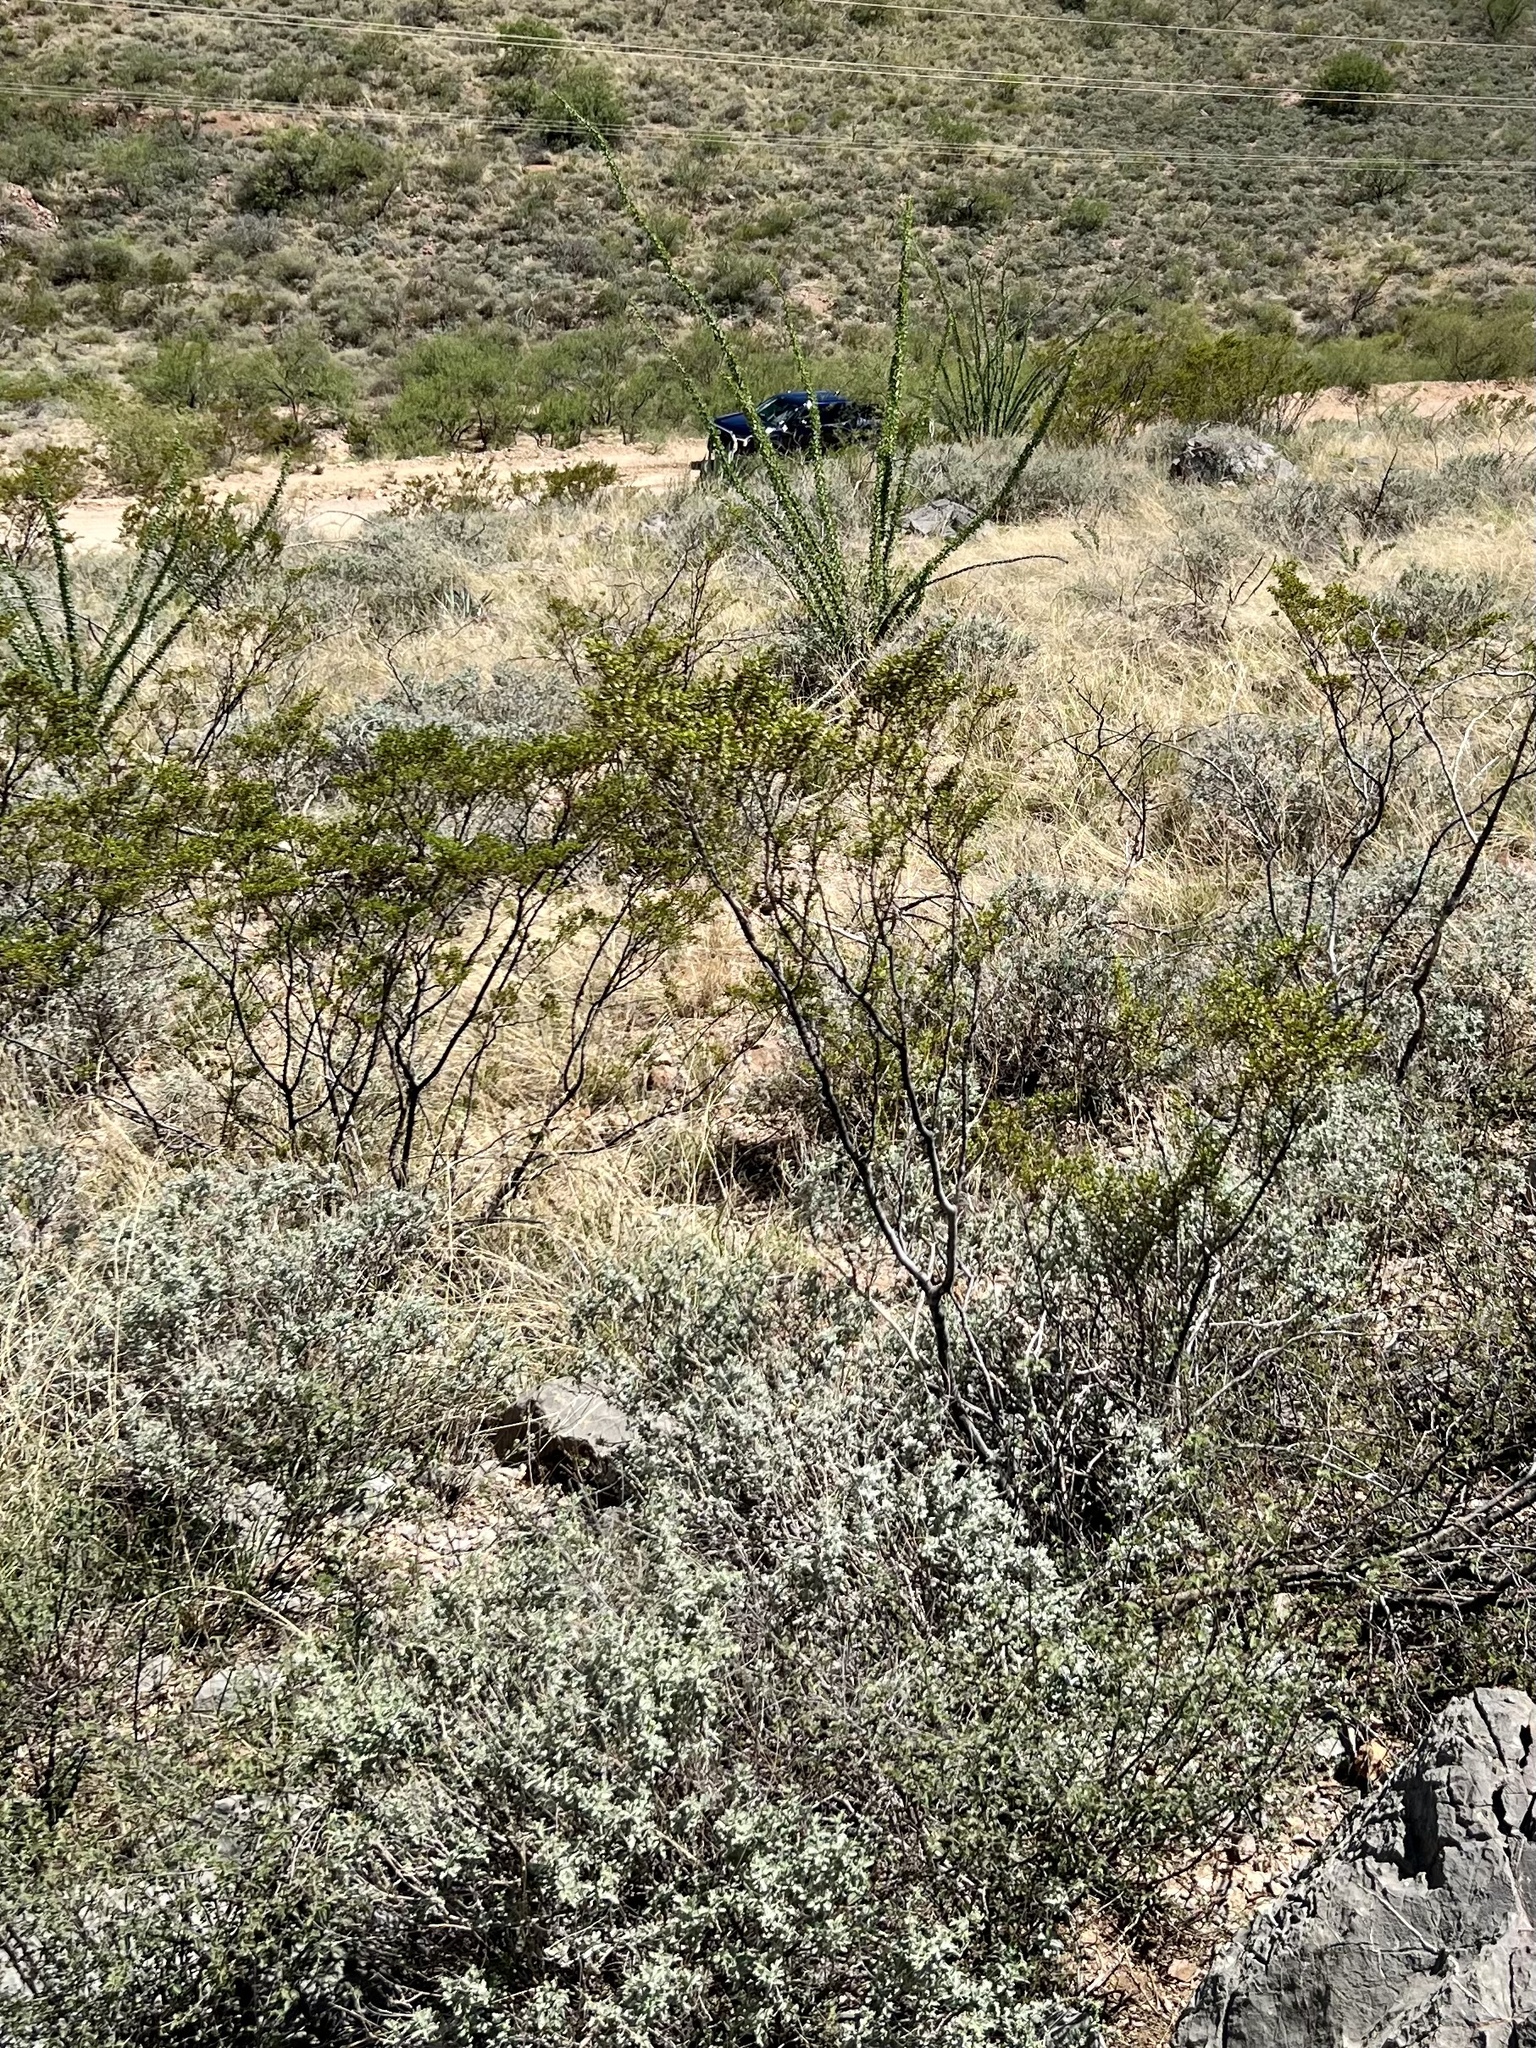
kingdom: Plantae
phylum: Tracheophyta
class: Magnoliopsida
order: Zygophyllales
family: Zygophyllaceae
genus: Larrea
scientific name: Larrea tridentata
